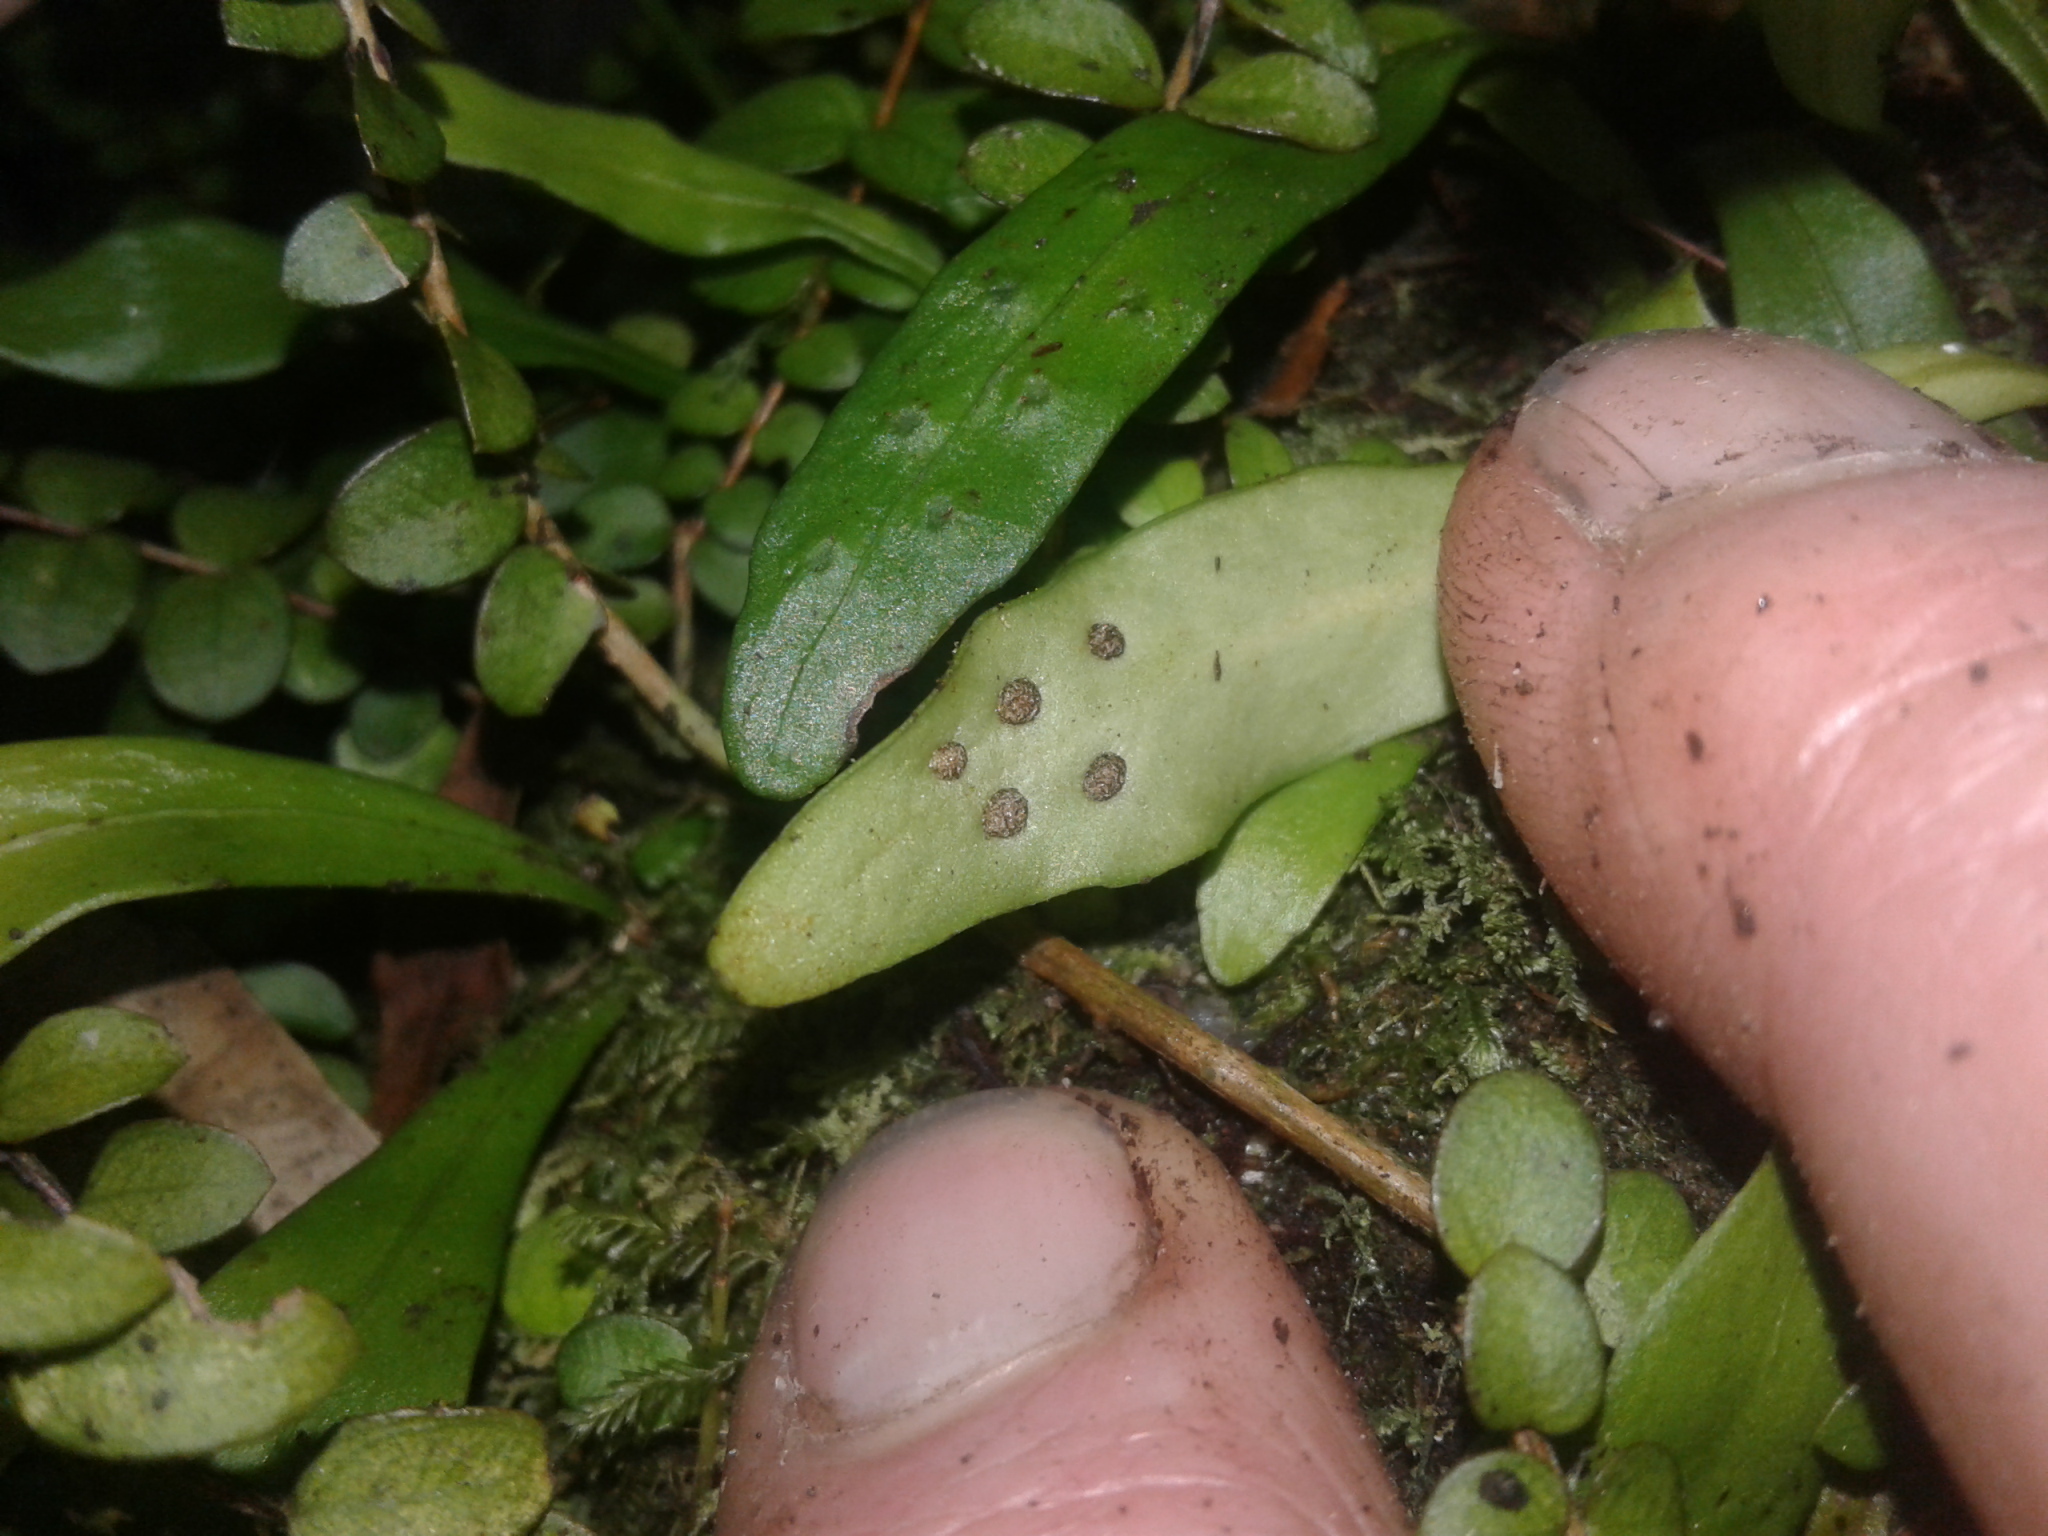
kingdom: Plantae
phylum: Tracheophyta
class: Polypodiopsida
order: Polypodiales
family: Polypodiaceae
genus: Pyrrosia
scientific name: Pyrrosia eleagnifolia
